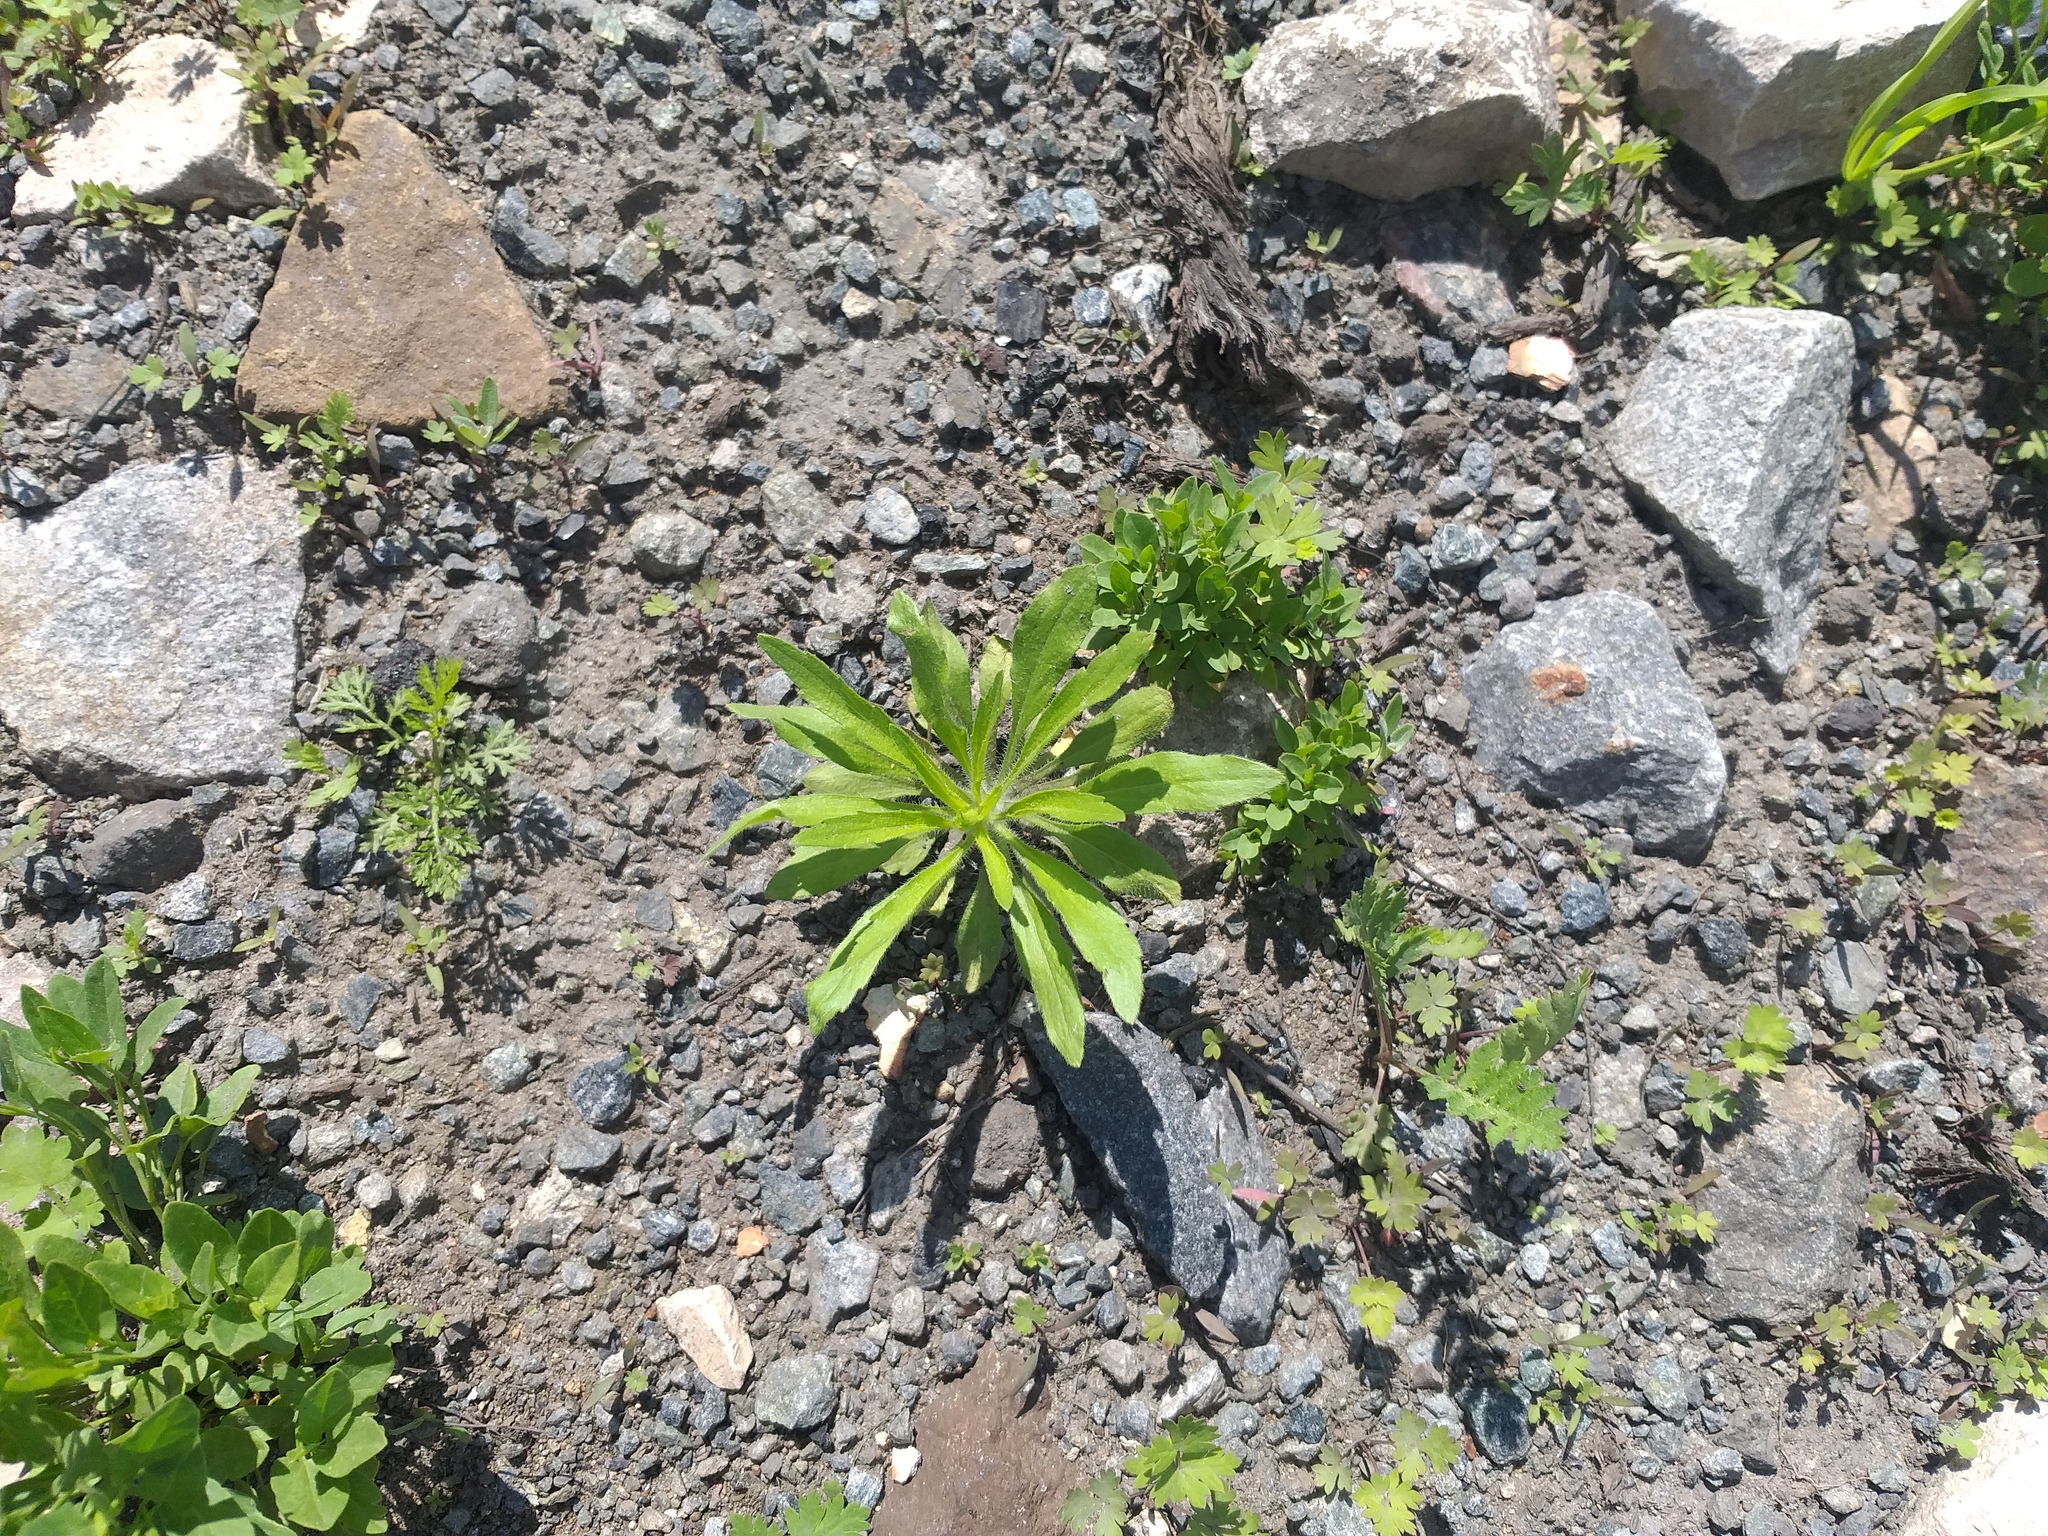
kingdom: Plantae
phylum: Tracheophyta
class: Magnoliopsida
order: Asterales
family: Asteraceae
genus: Erigeron
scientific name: Erigeron canadensis
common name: Canadian fleabane
